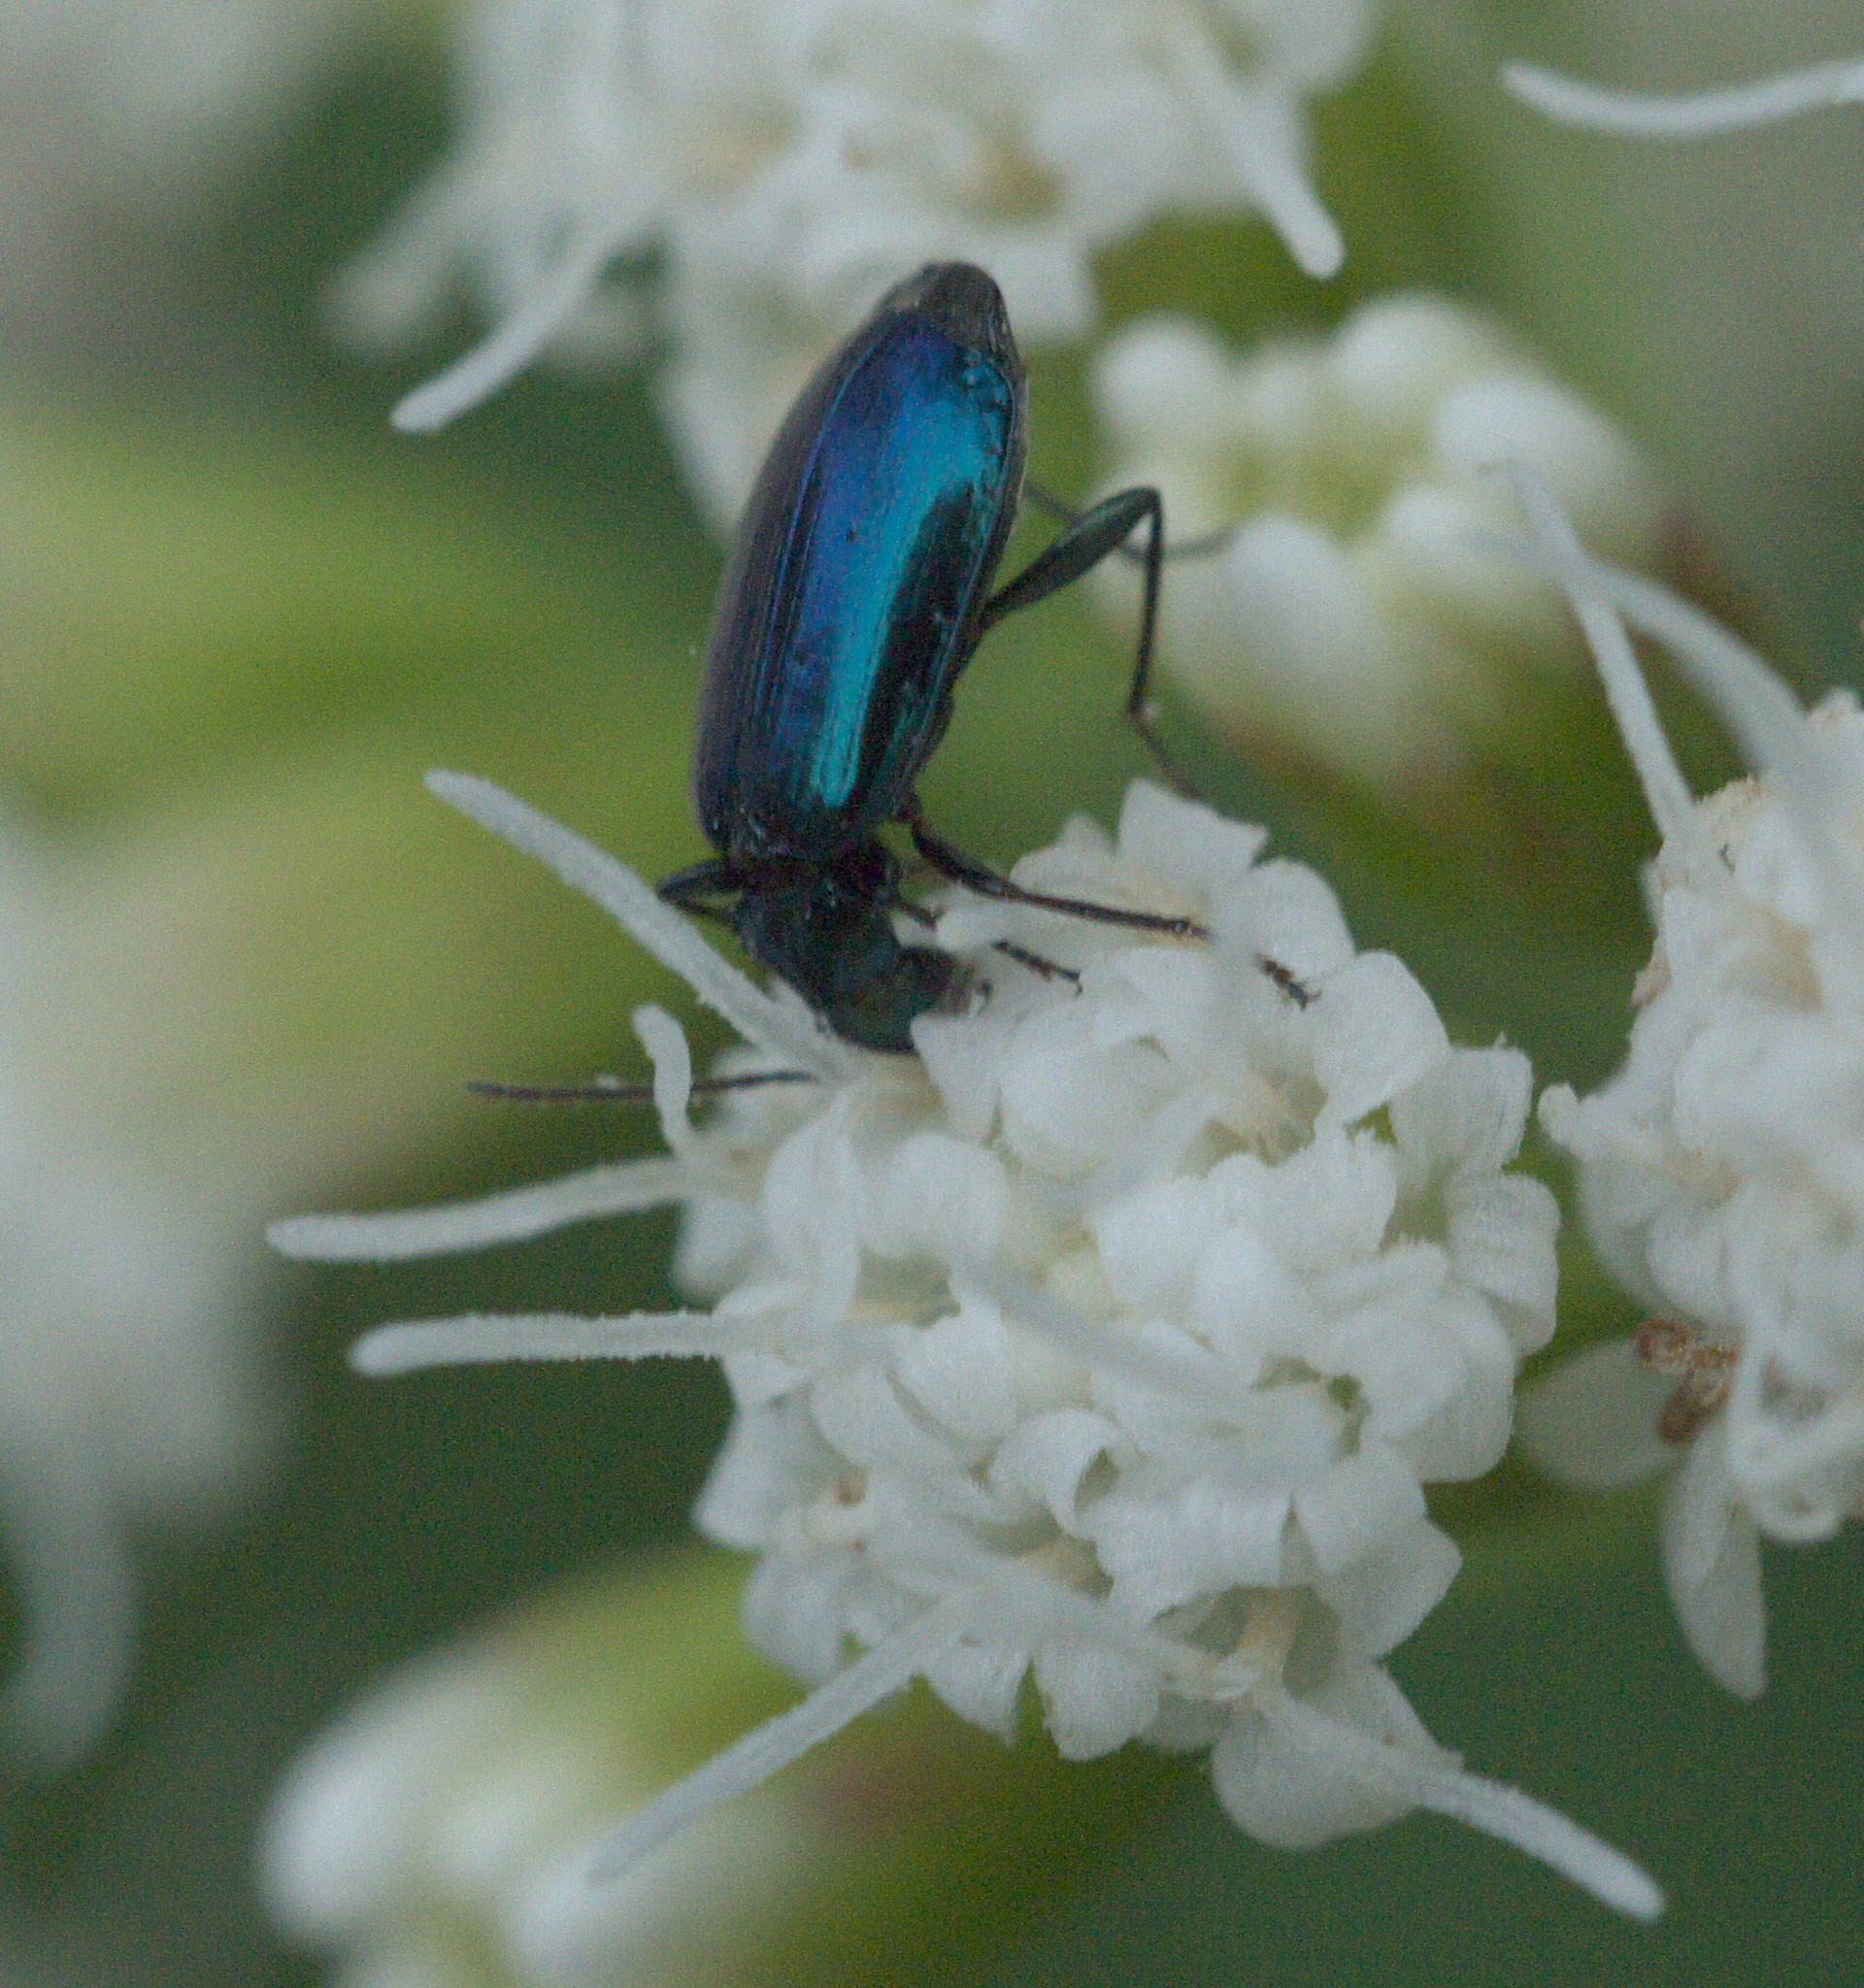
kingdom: Animalia
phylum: Arthropoda
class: Insecta
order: Coleoptera
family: Carabidae
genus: Lebia
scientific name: Lebia viridis
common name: Flower lebia beetle
